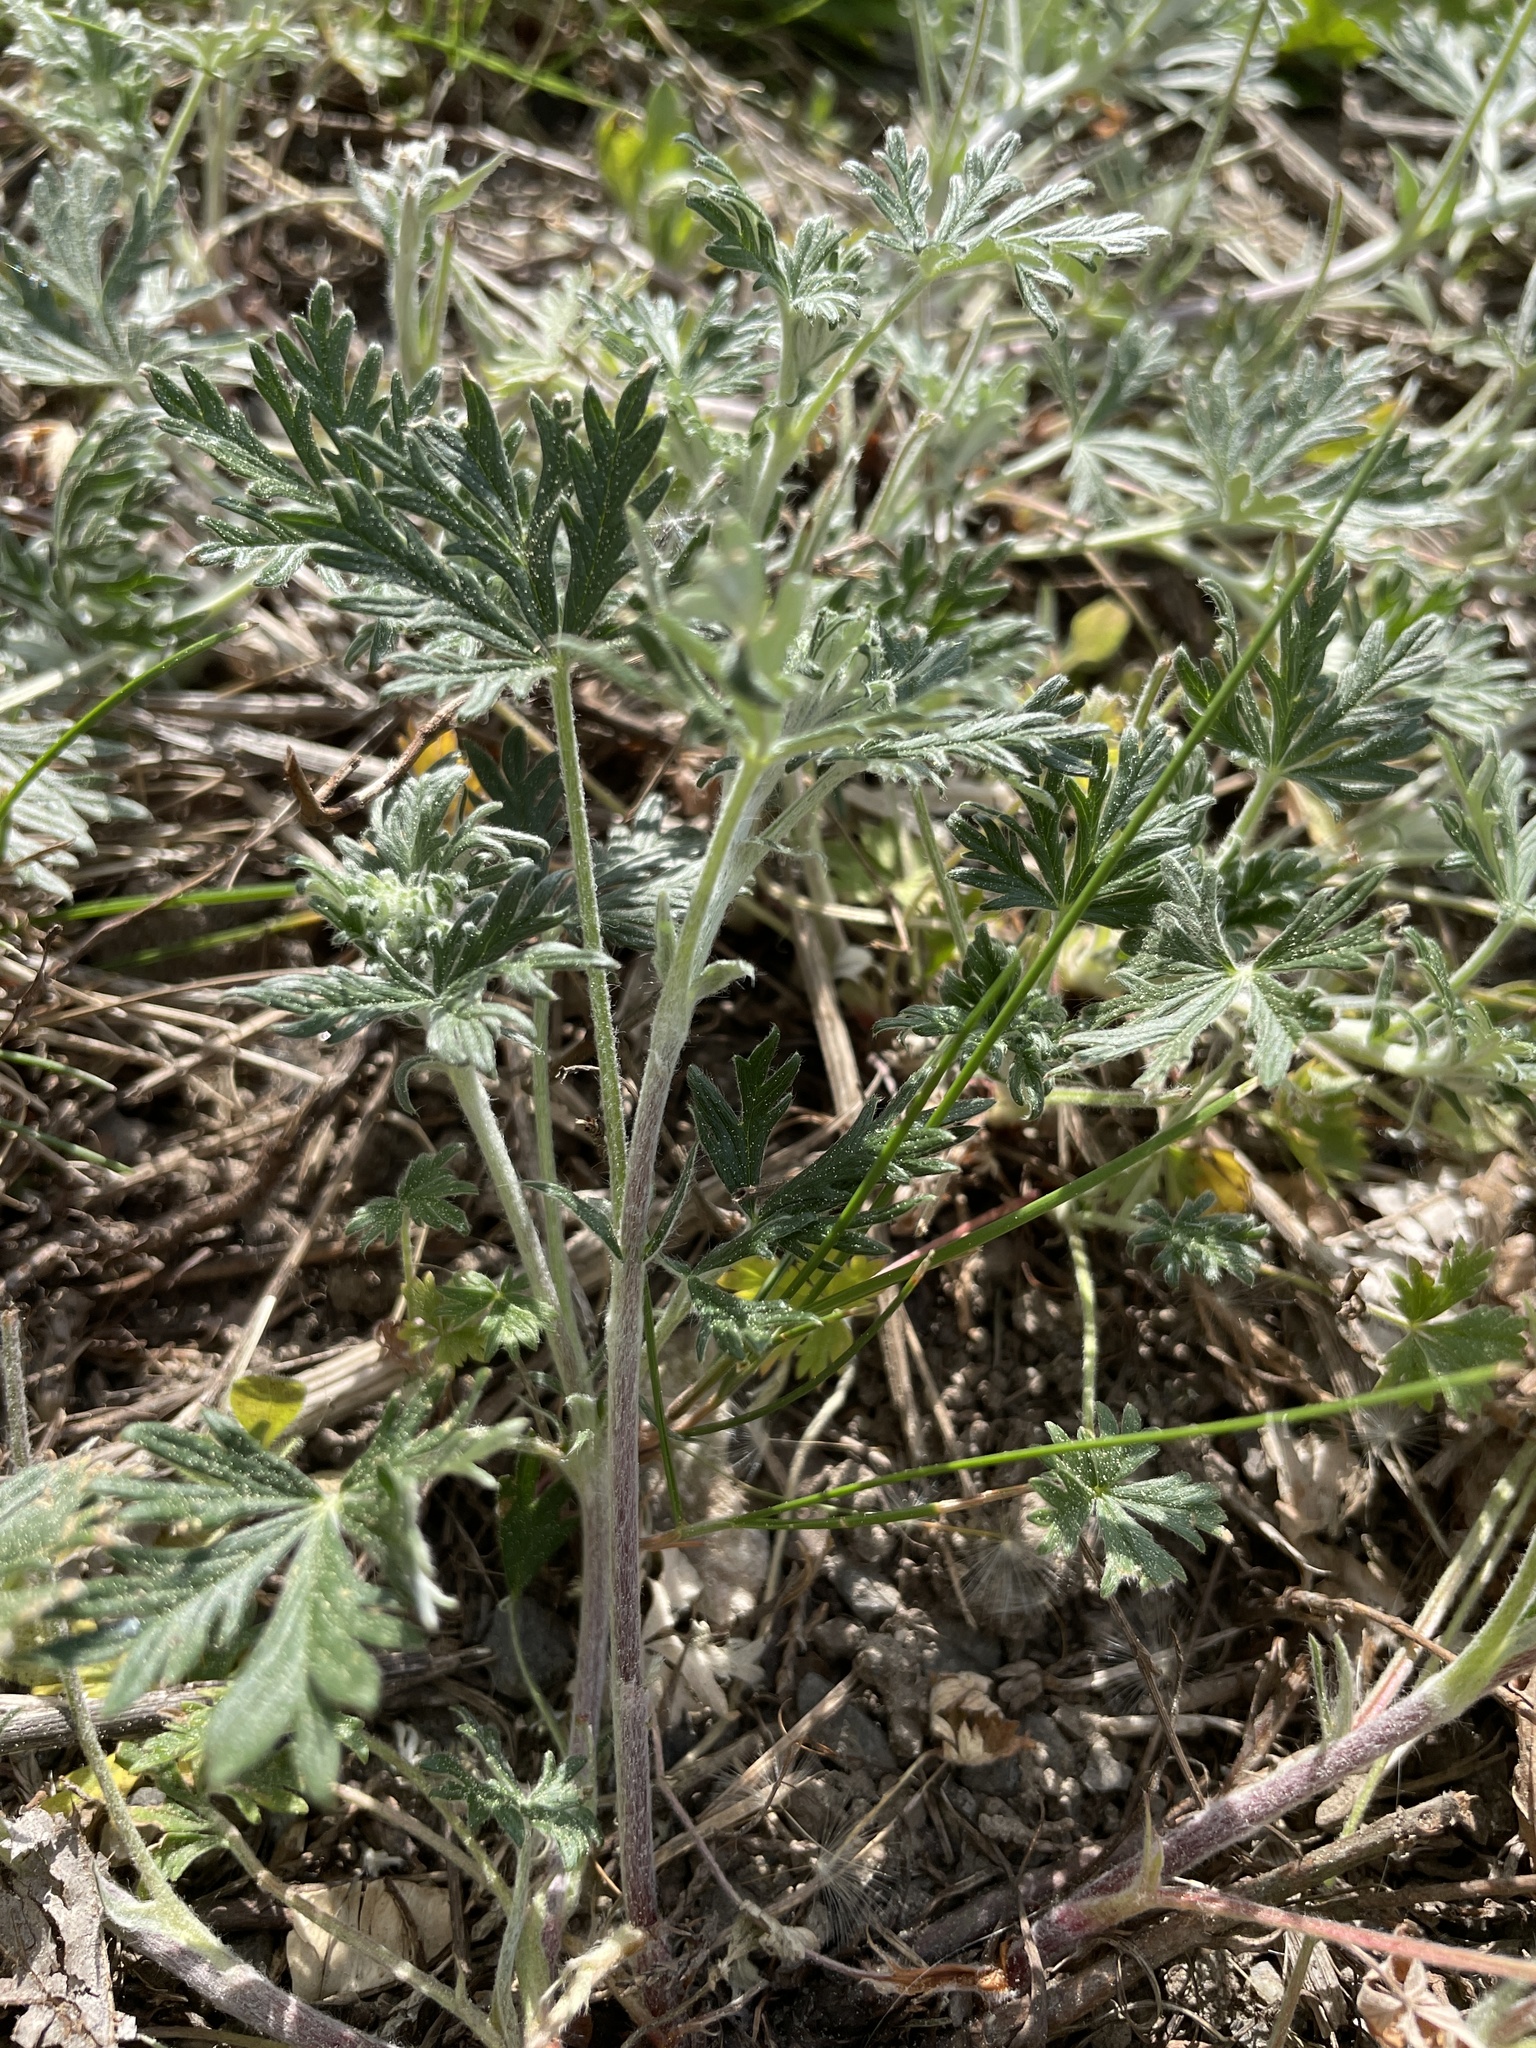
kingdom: Plantae
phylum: Tracheophyta
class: Magnoliopsida
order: Rosales
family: Rosaceae
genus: Potentilla
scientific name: Potentilla argentea
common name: Hoary cinquefoil
